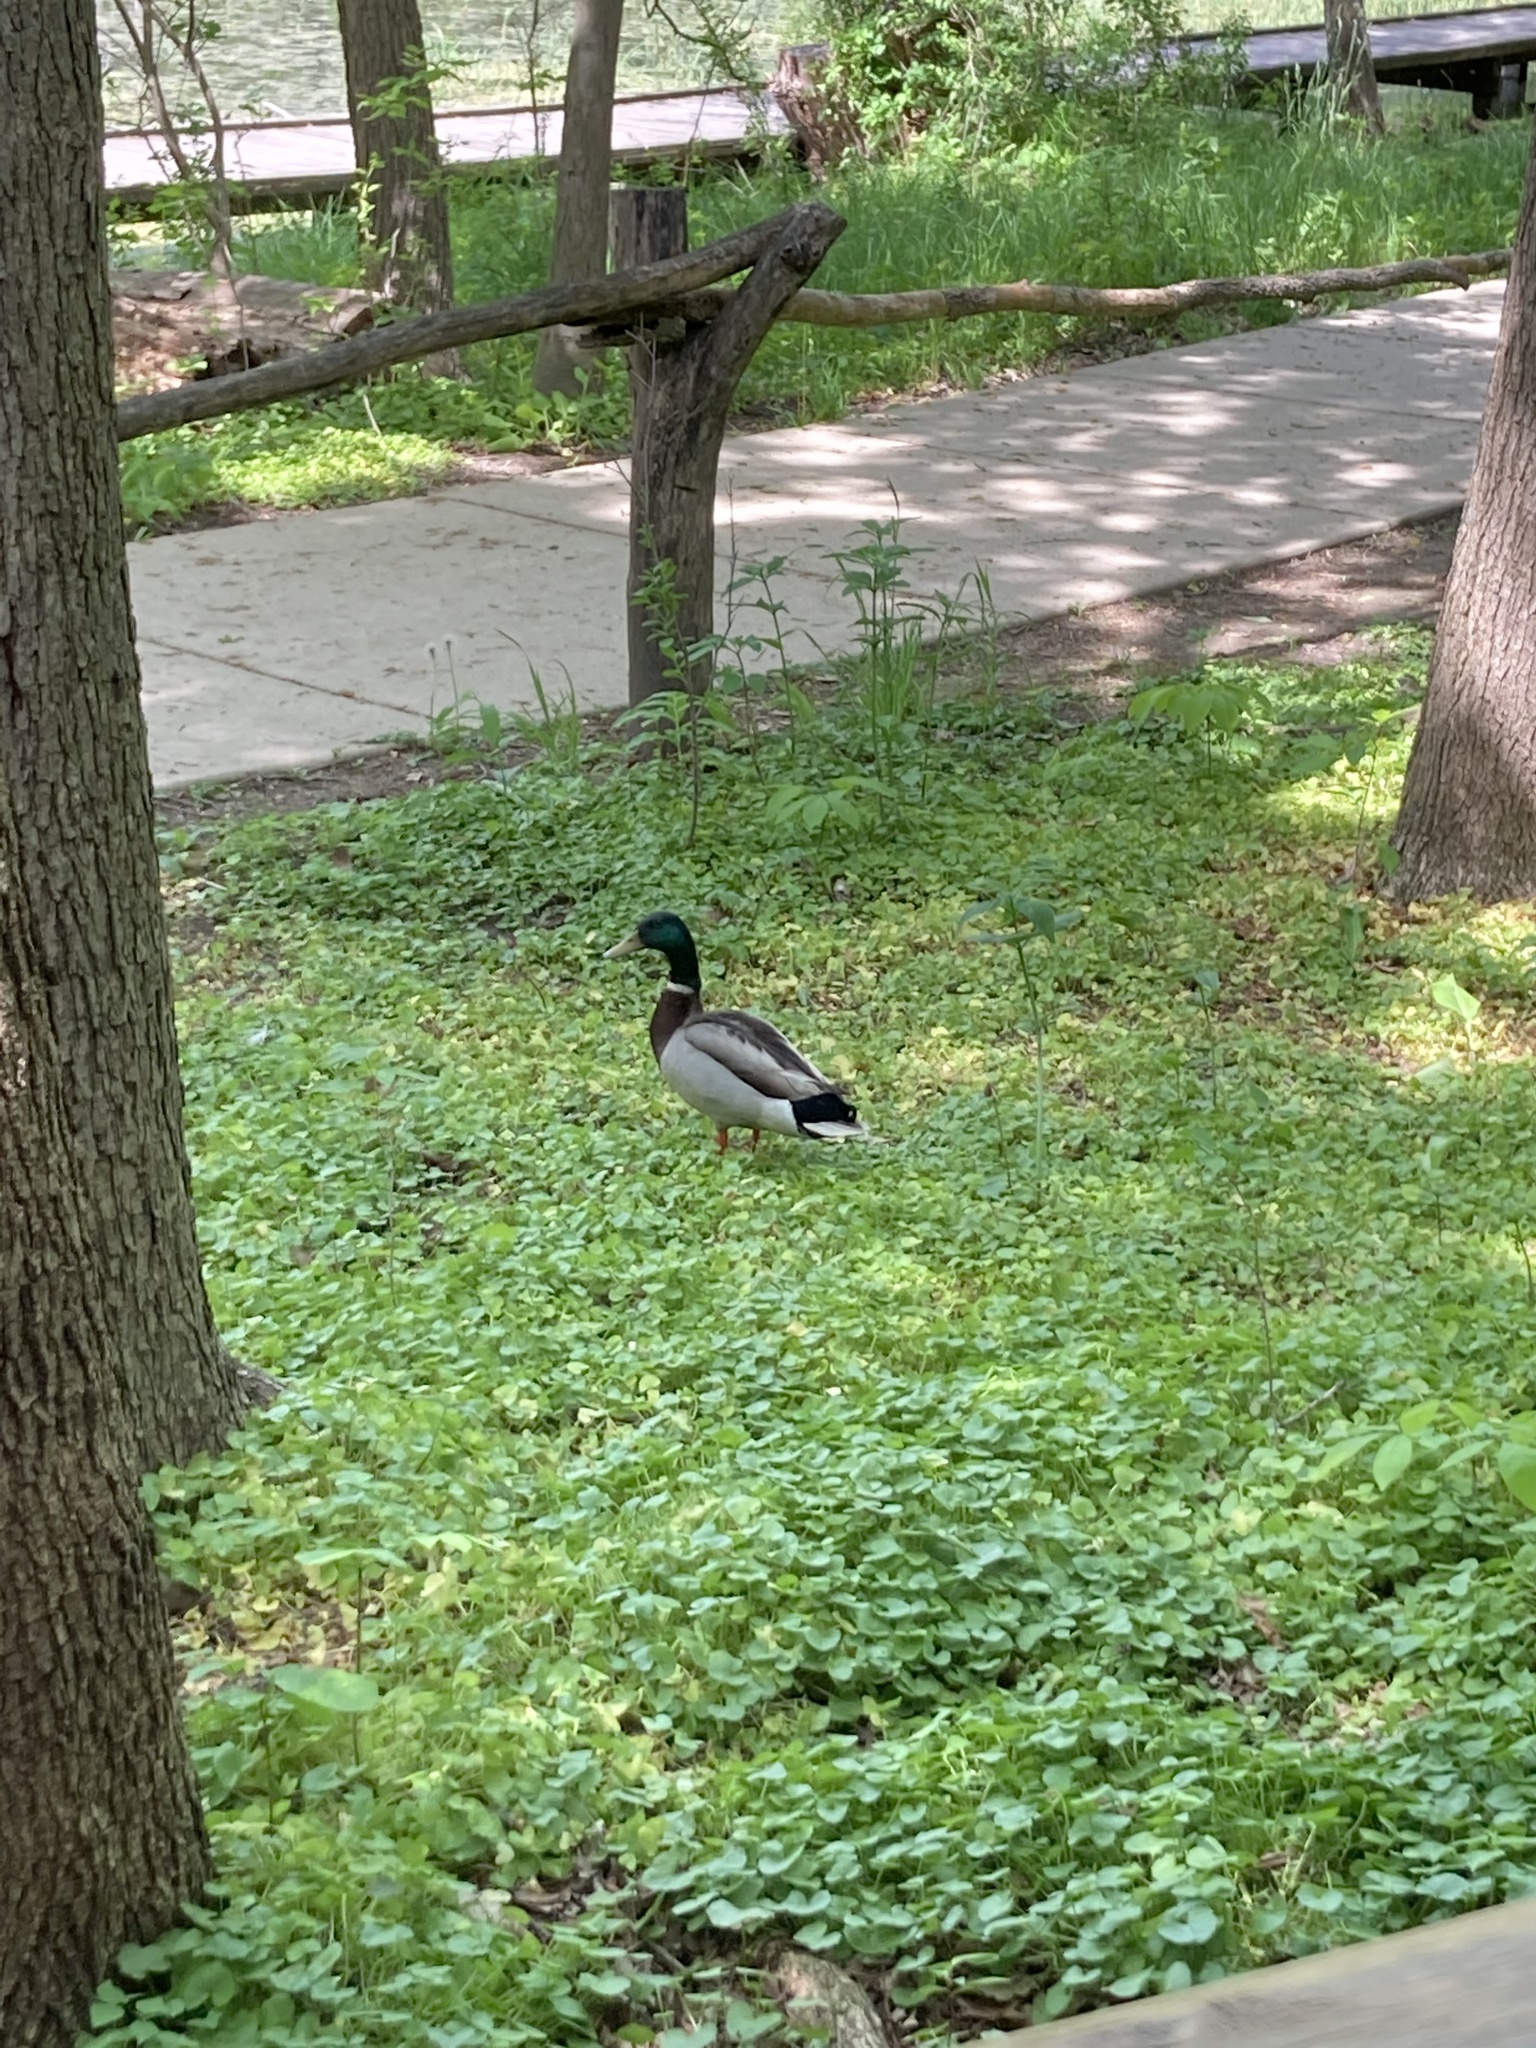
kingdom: Animalia
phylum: Chordata
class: Aves
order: Anseriformes
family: Anatidae
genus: Anas
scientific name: Anas platyrhynchos
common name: Mallard
